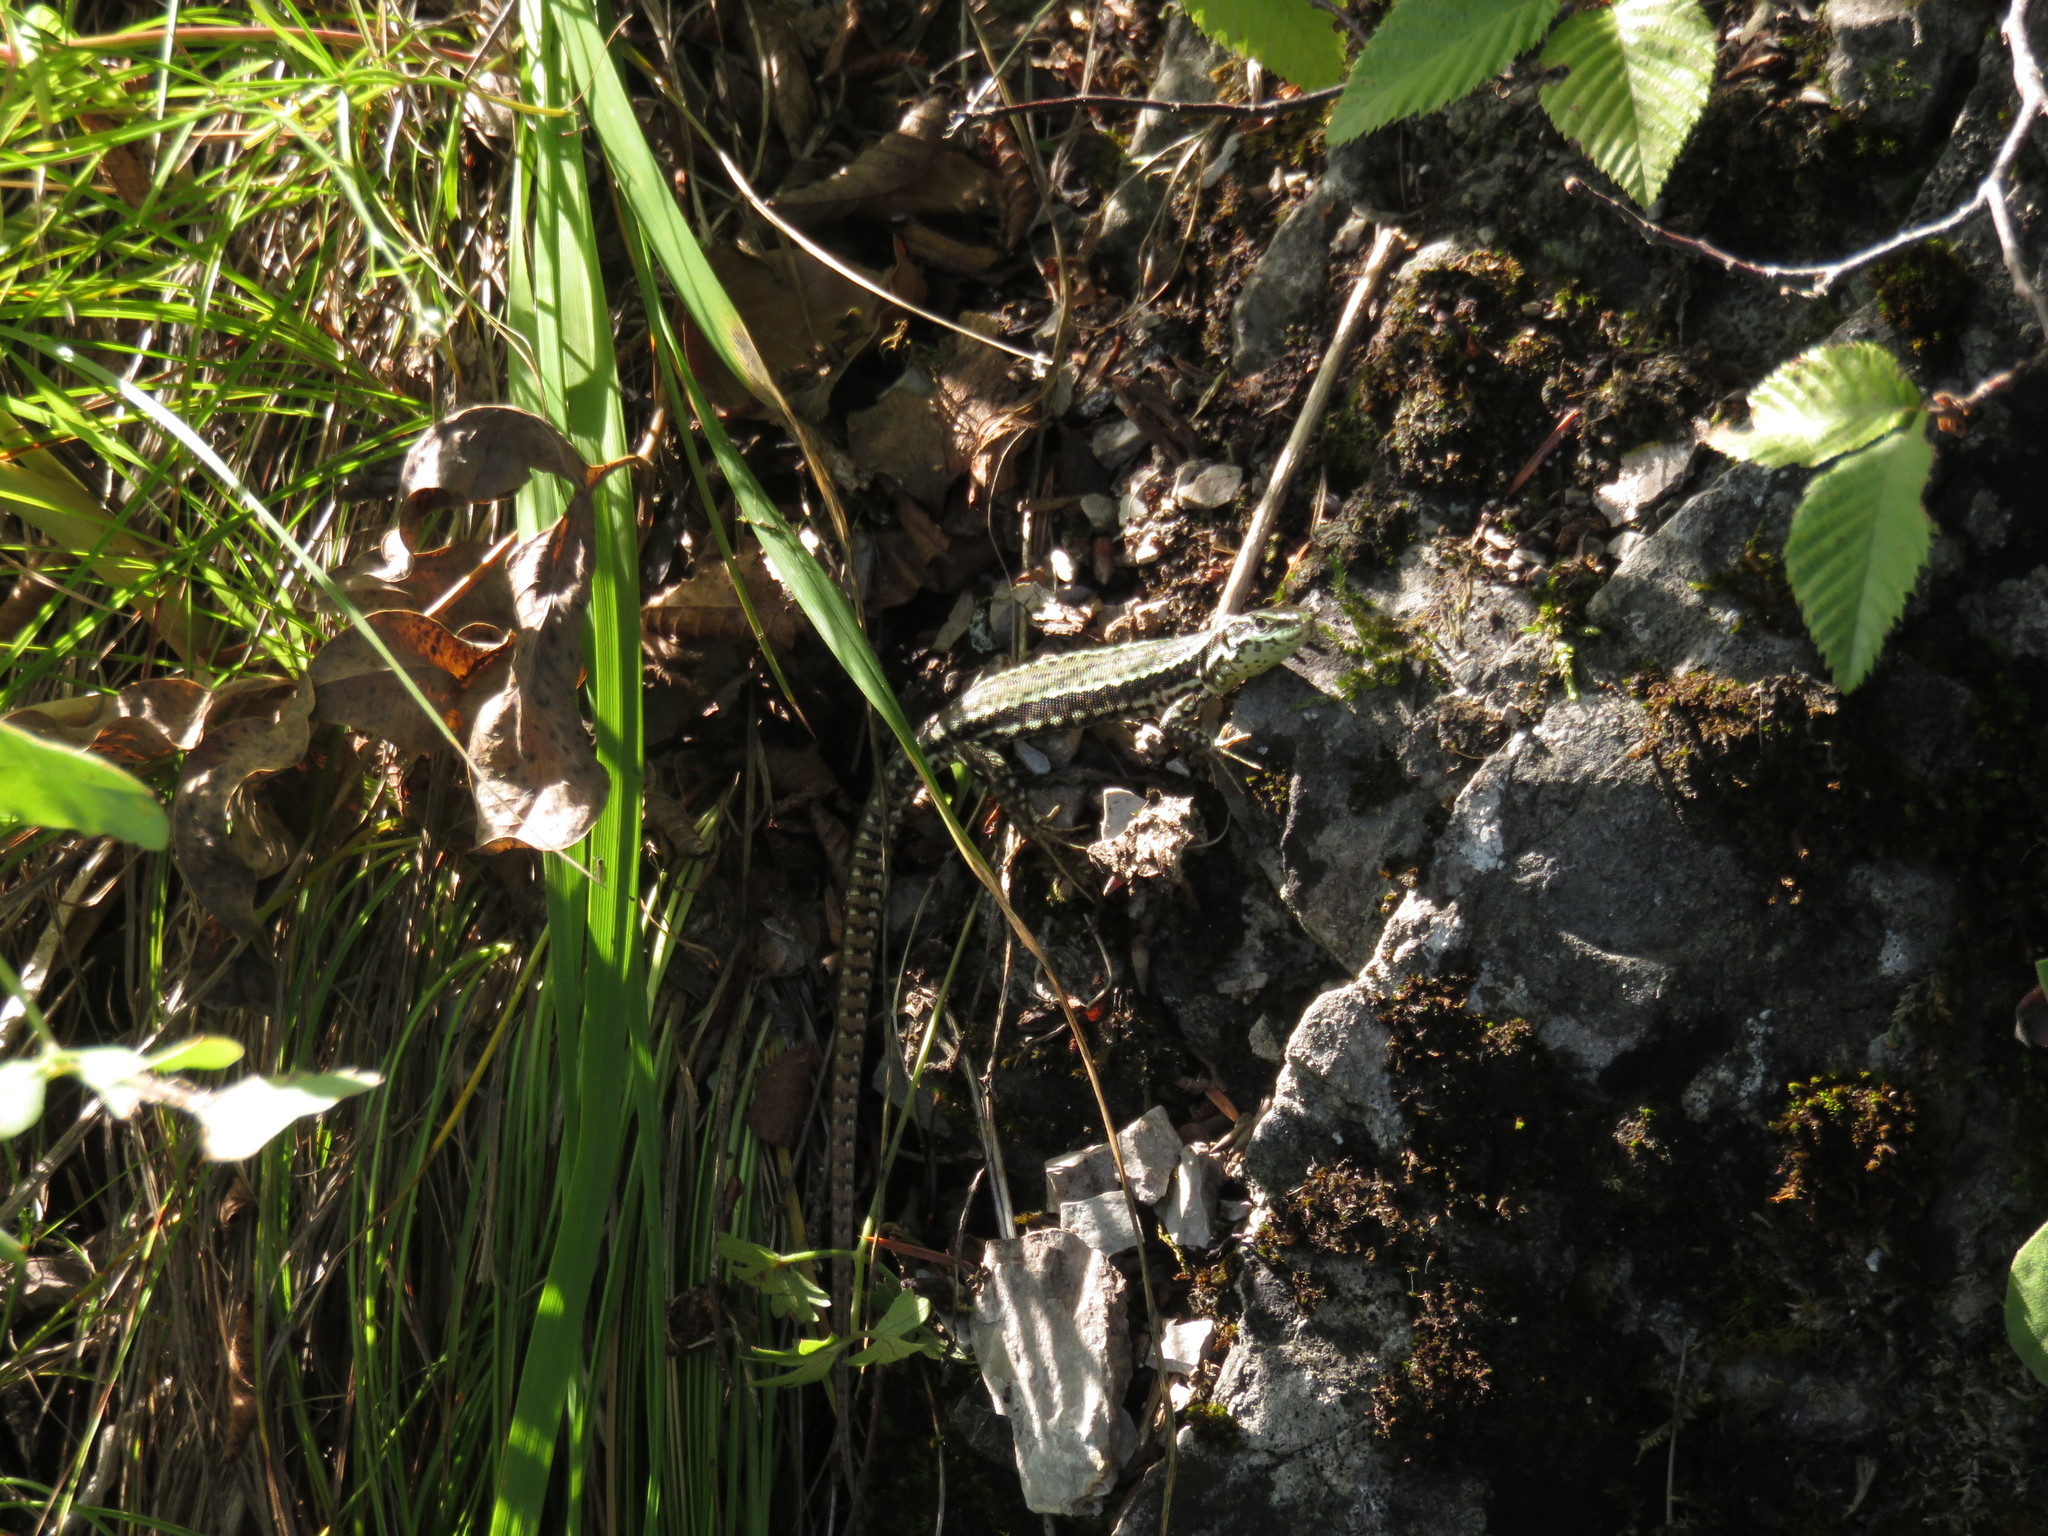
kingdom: Animalia
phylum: Chordata
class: Squamata
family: Lacertidae
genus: Podarcis
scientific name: Podarcis muralis
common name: Common wall lizard
